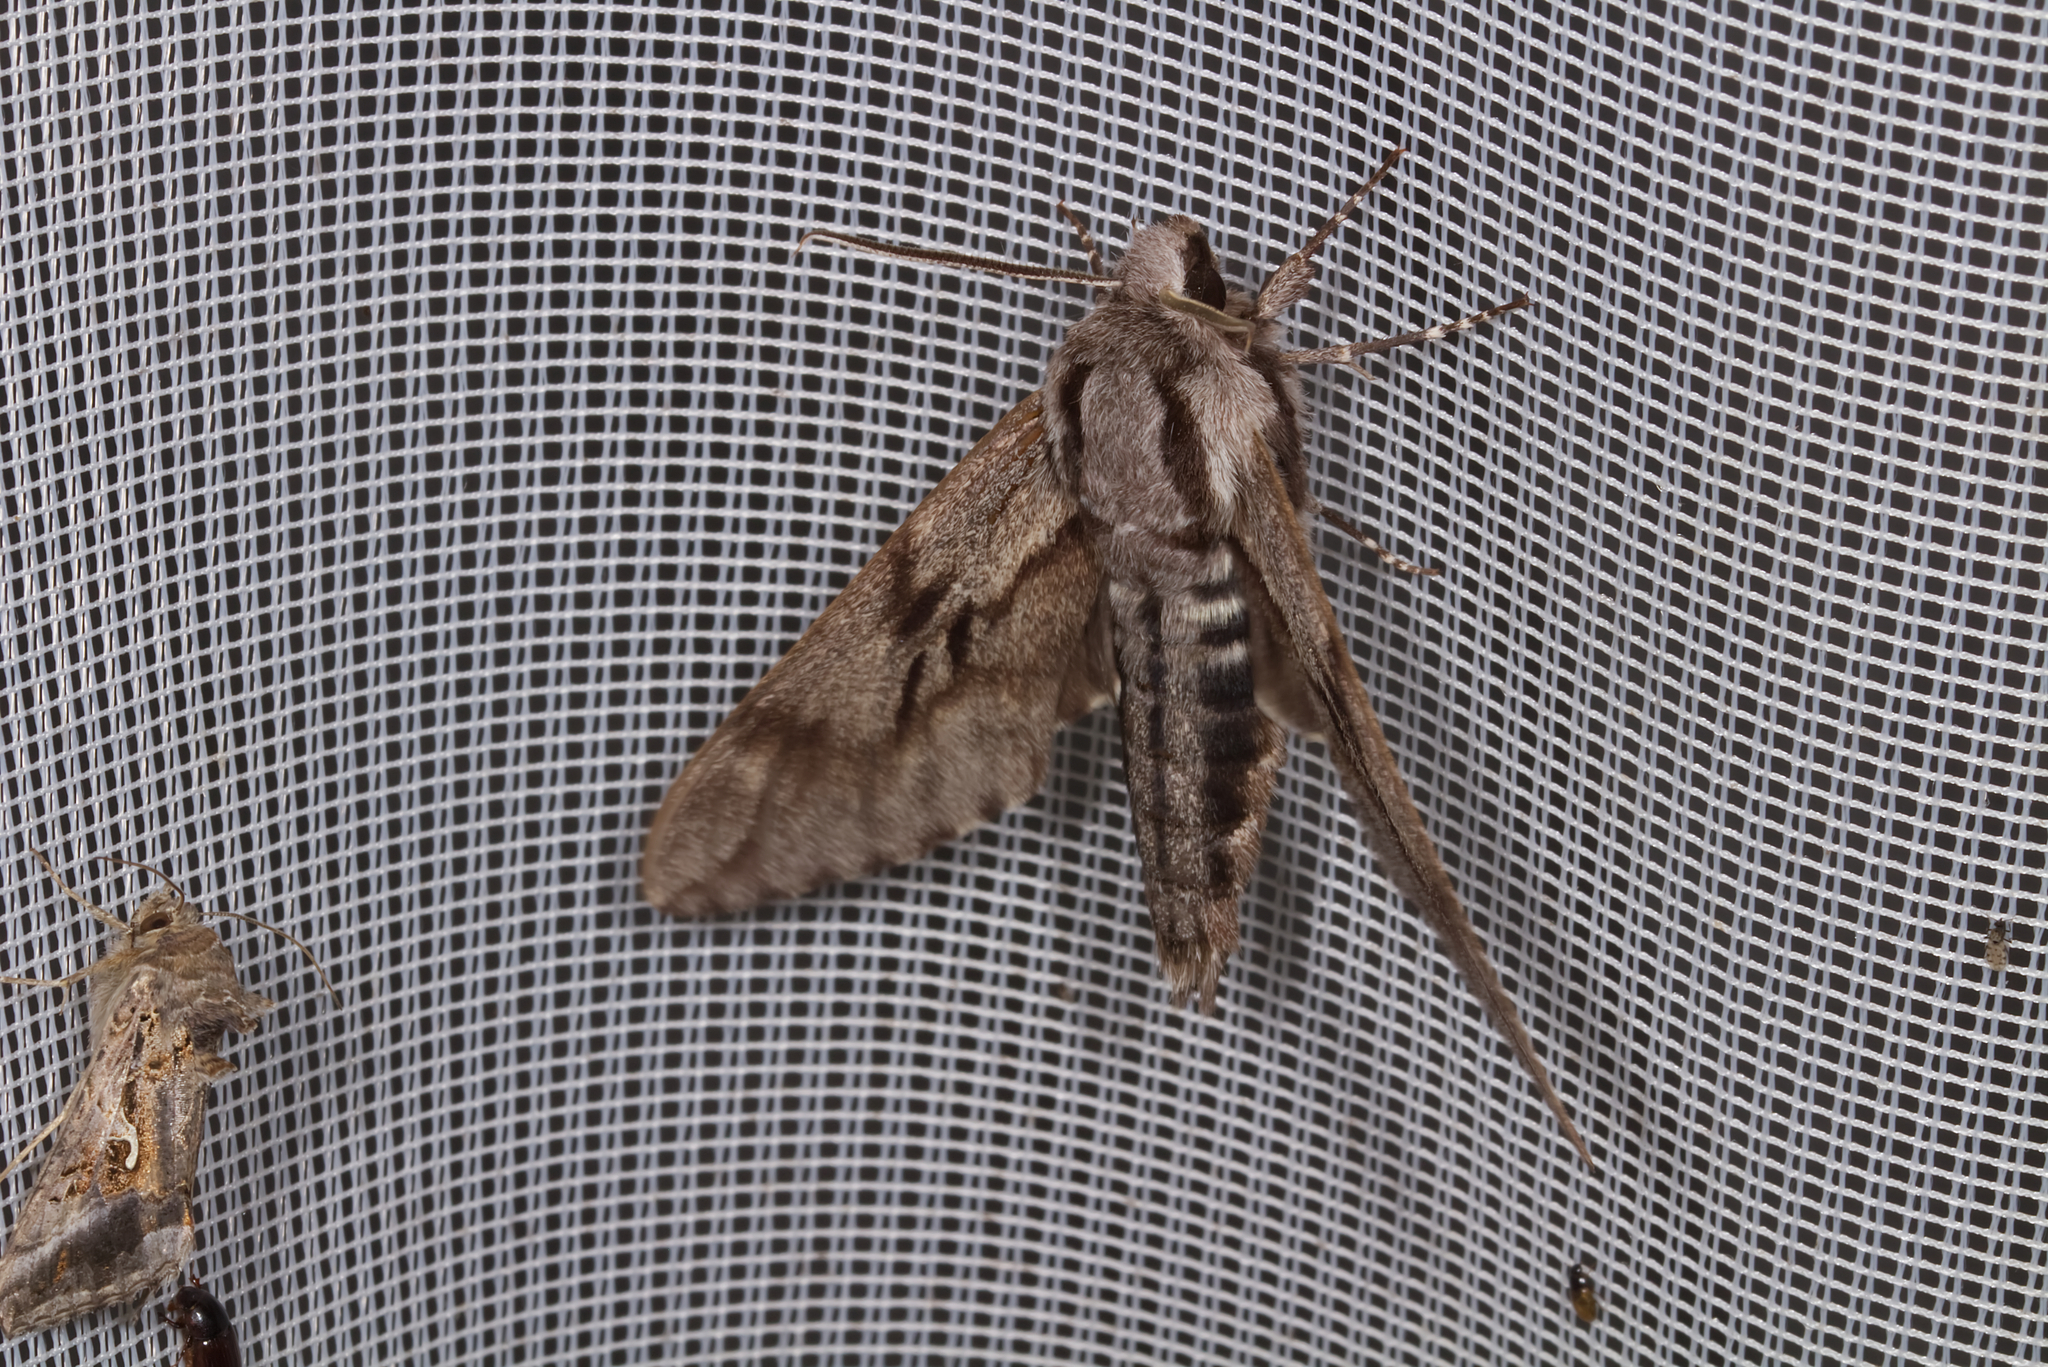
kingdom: Animalia
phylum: Arthropoda
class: Insecta
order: Lepidoptera
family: Sphingidae
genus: Sphinx
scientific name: Sphinx pinastri
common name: Pine hawk-moth
